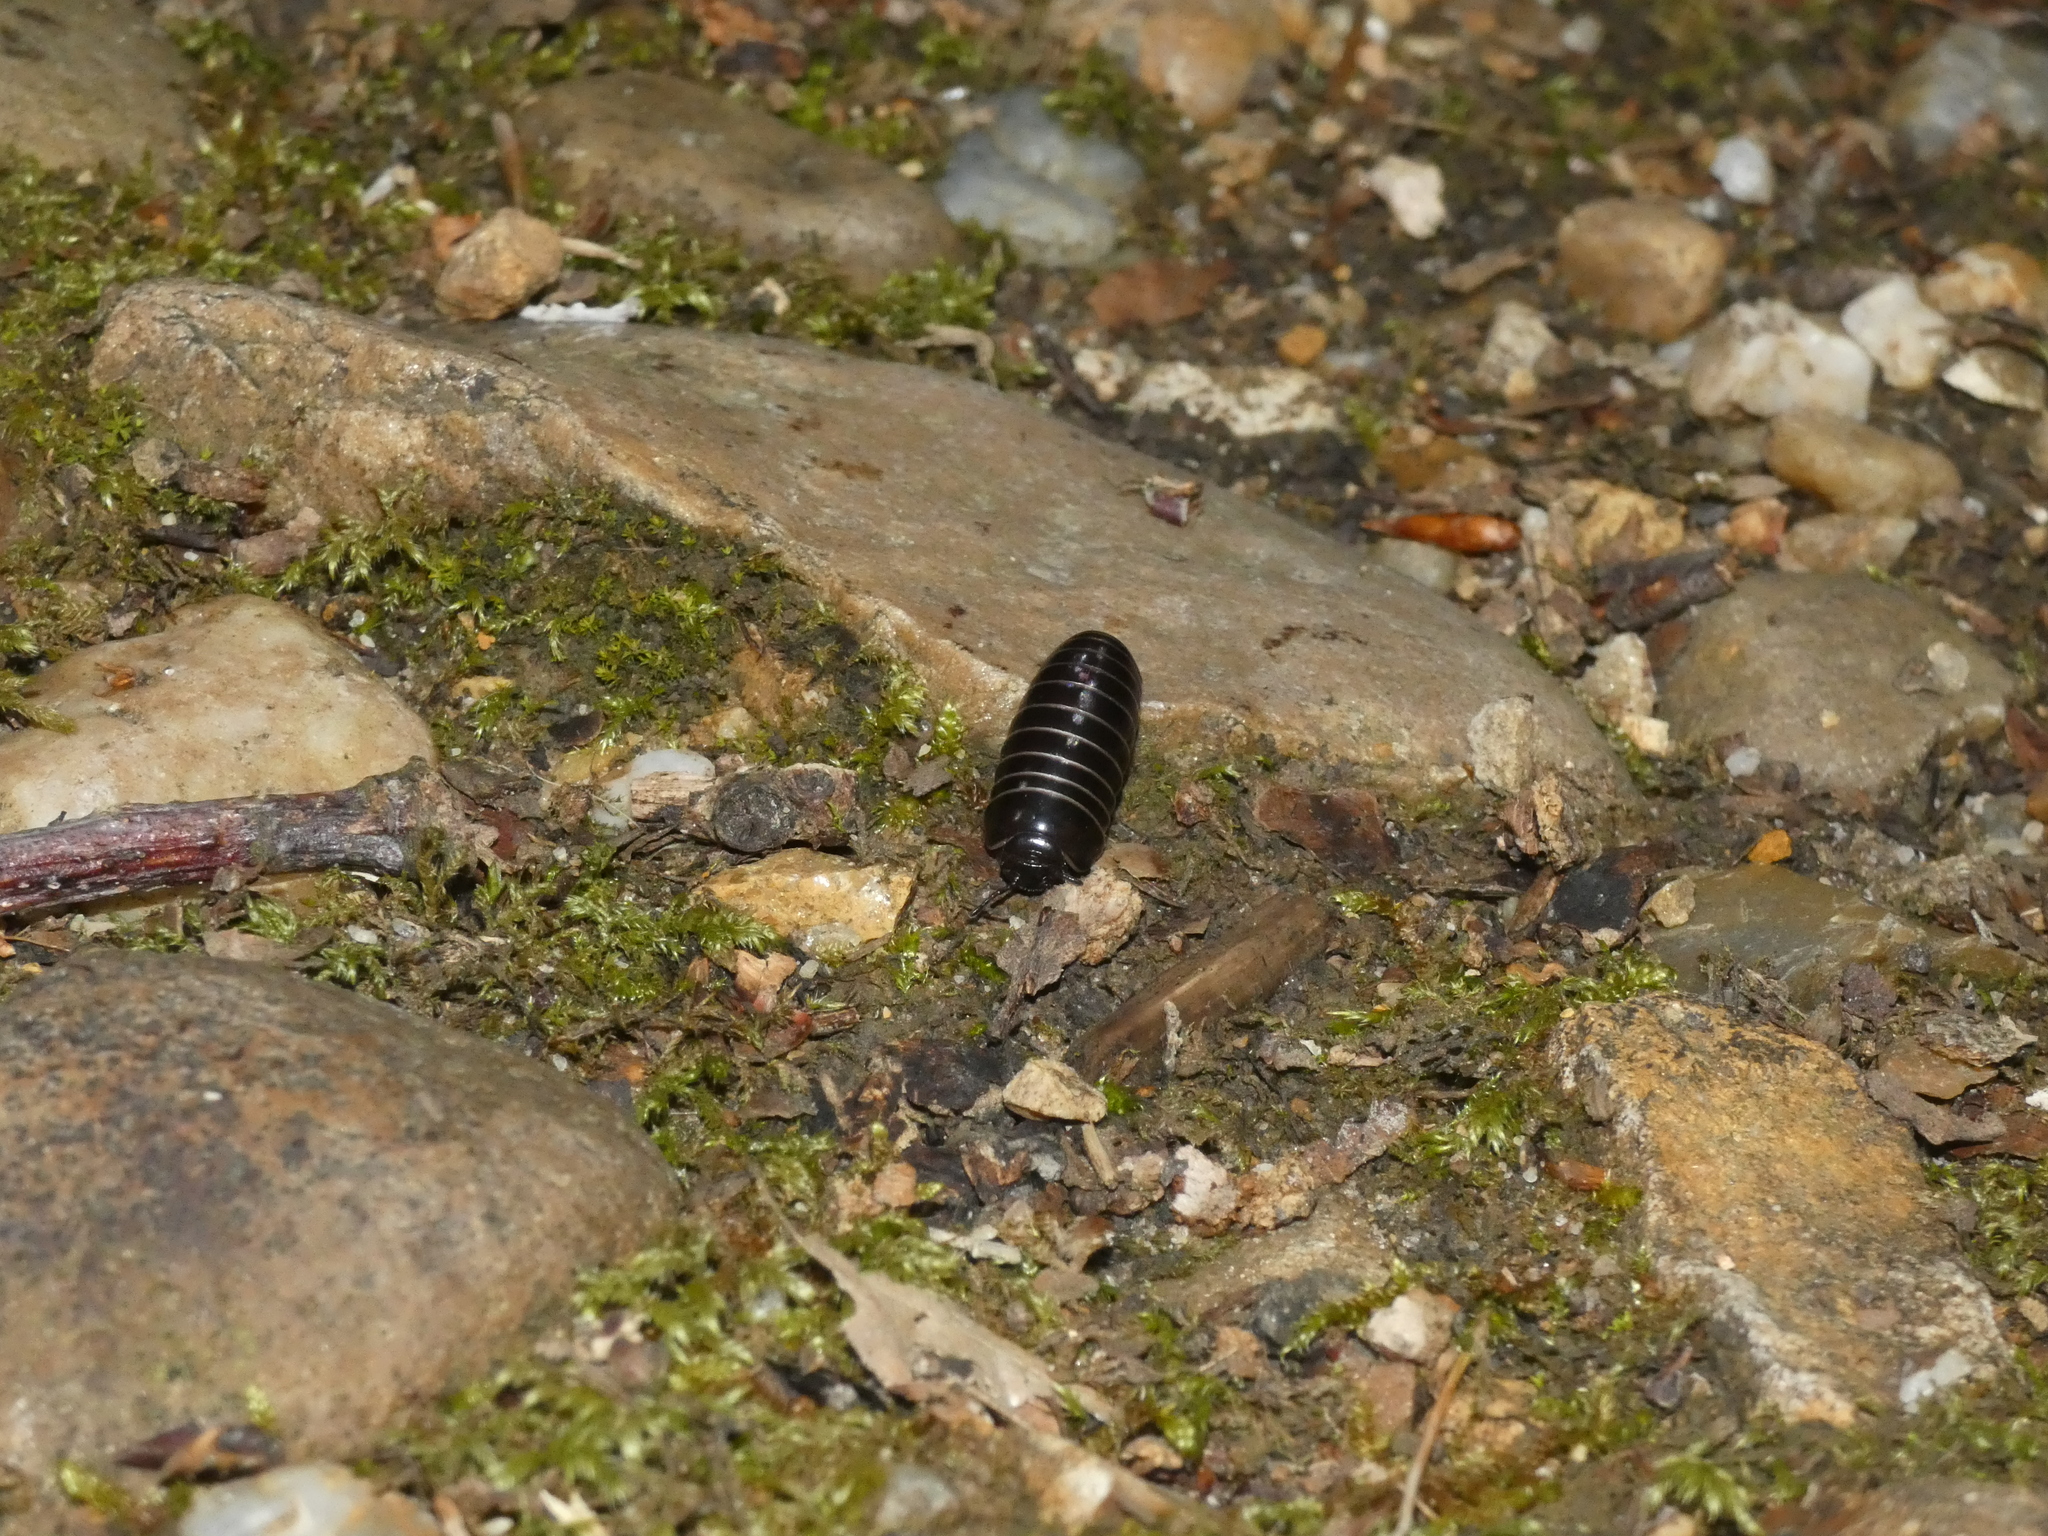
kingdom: Animalia
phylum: Arthropoda
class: Diplopoda
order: Glomerida
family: Glomeridae
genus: Glomeris
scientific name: Glomeris marginata
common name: Bordered pill millipede
